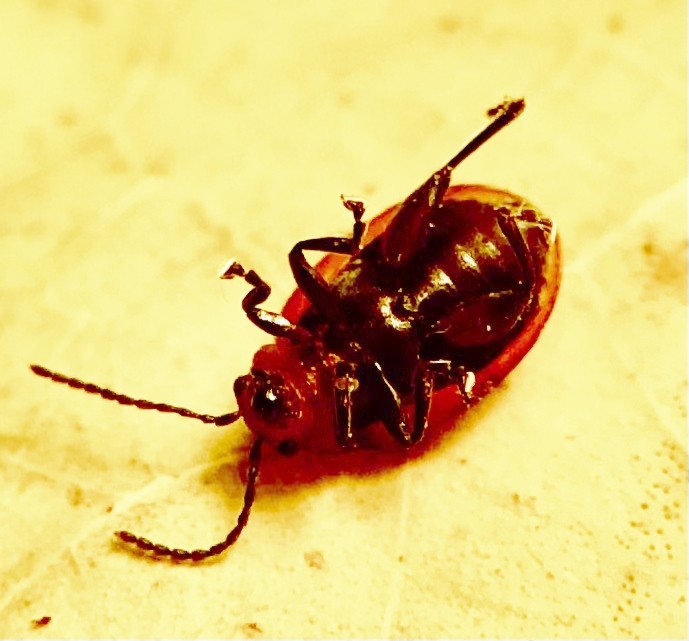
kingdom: Animalia
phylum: Arthropoda
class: Insecta
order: Coleoptera
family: Chrysomelidae
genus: Strabala
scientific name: Strabala rufa
